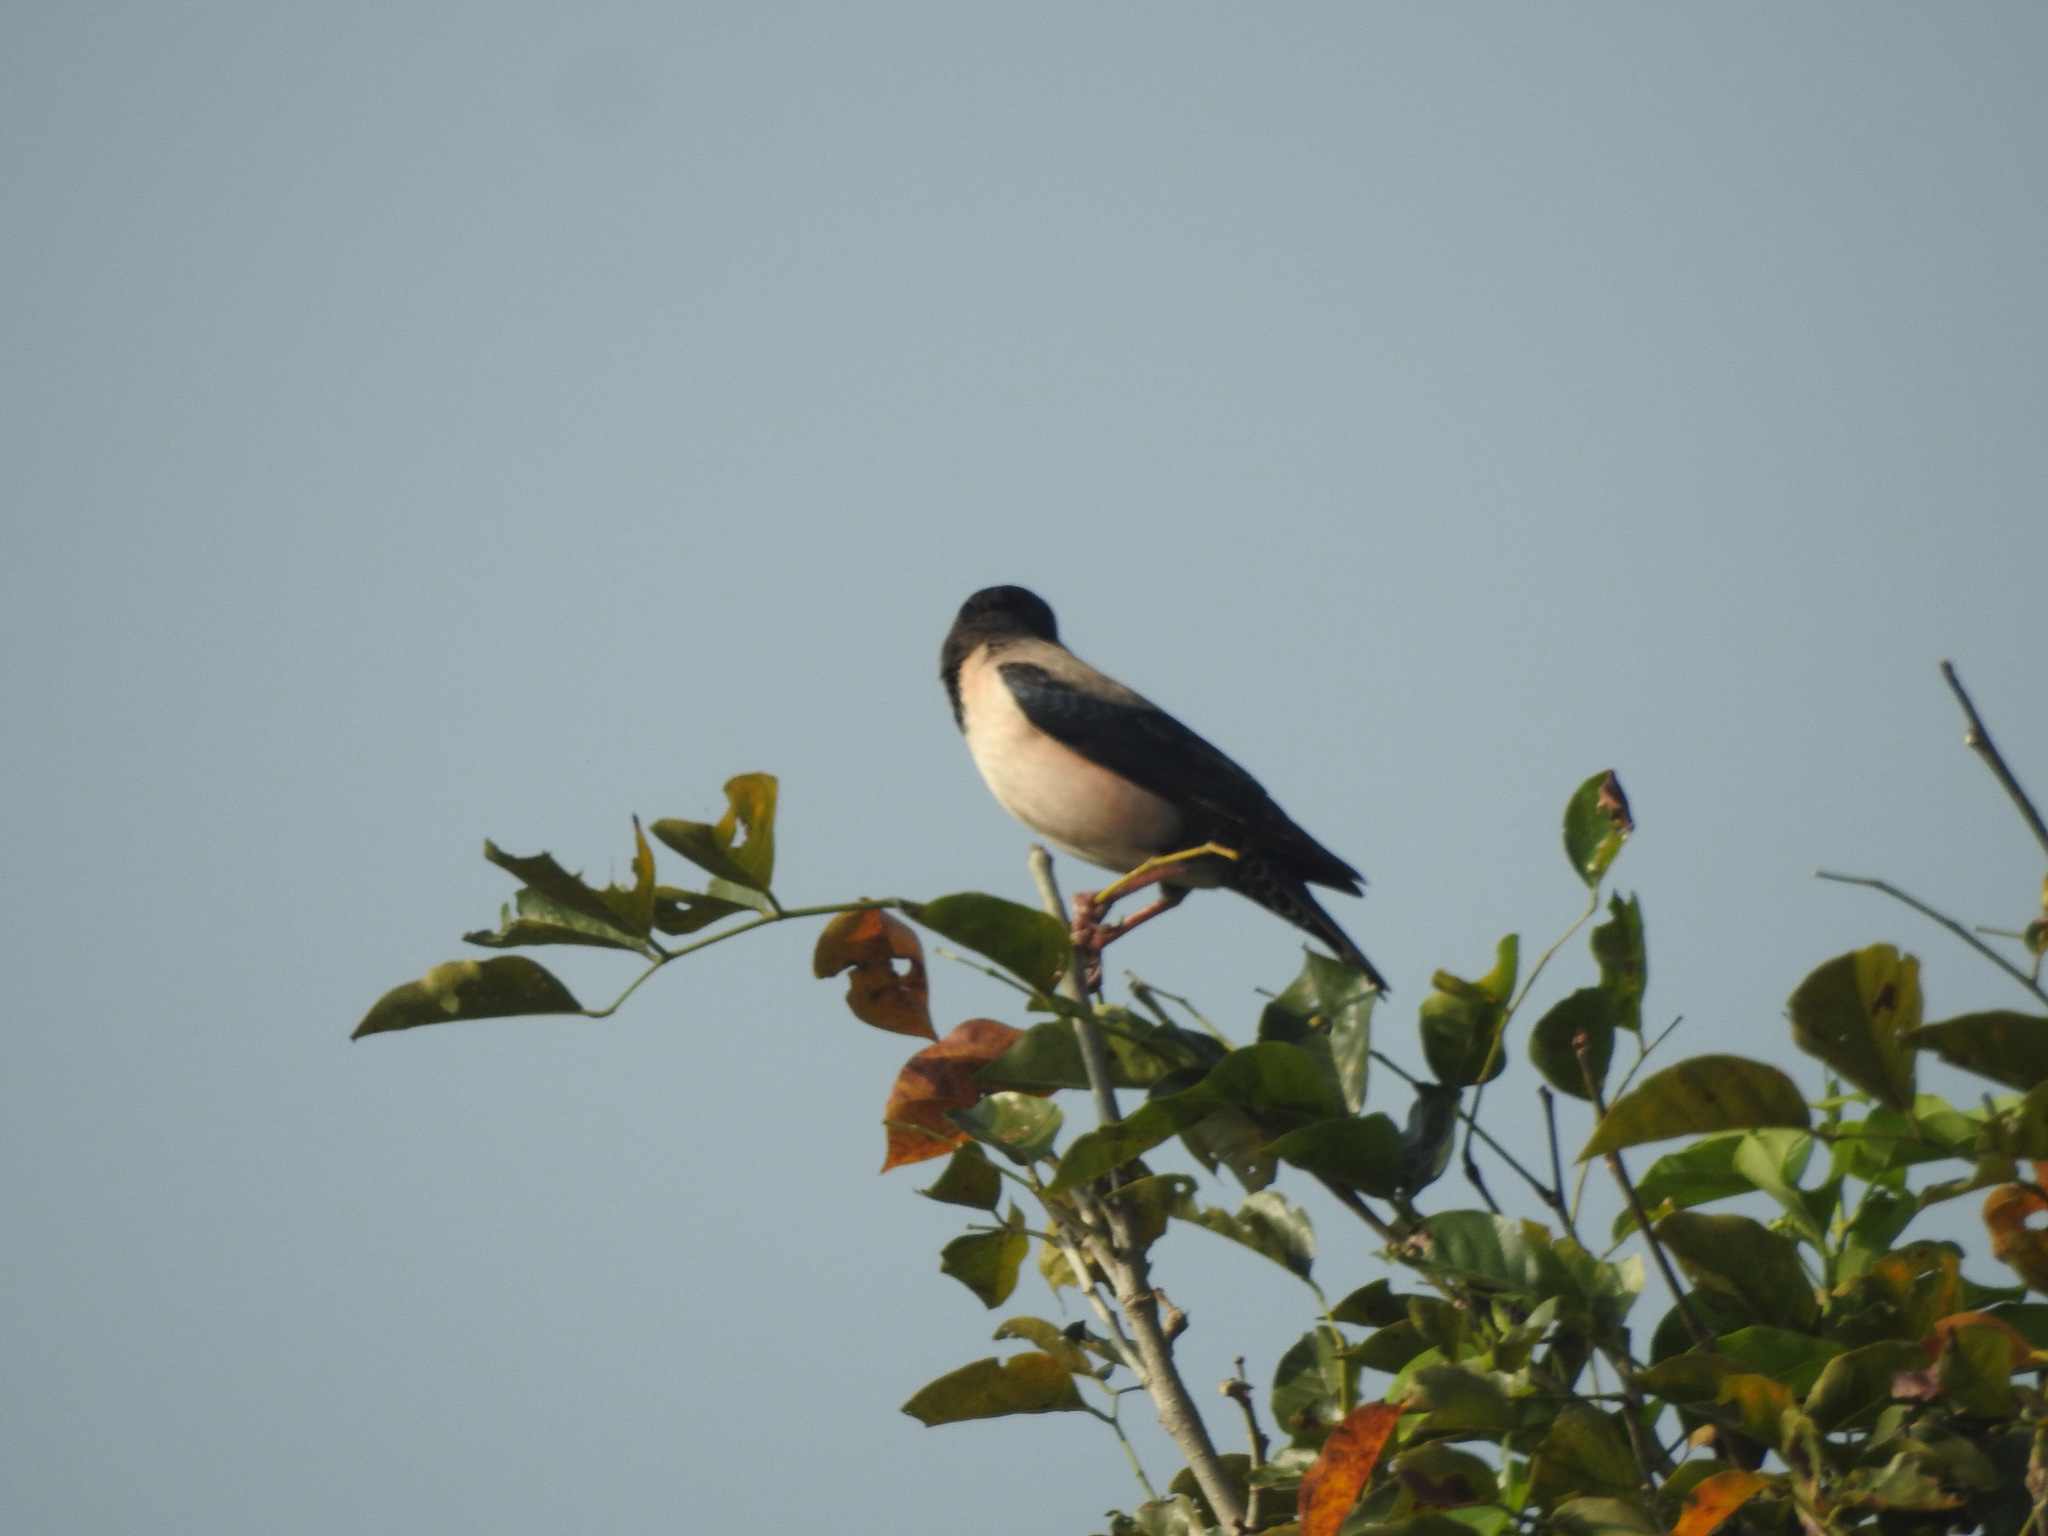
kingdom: Animalia
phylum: Chordata
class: Aves
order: Passeriformes
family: Sturnidae
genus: Pastor
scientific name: Pastor roseus
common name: Rosy starling
